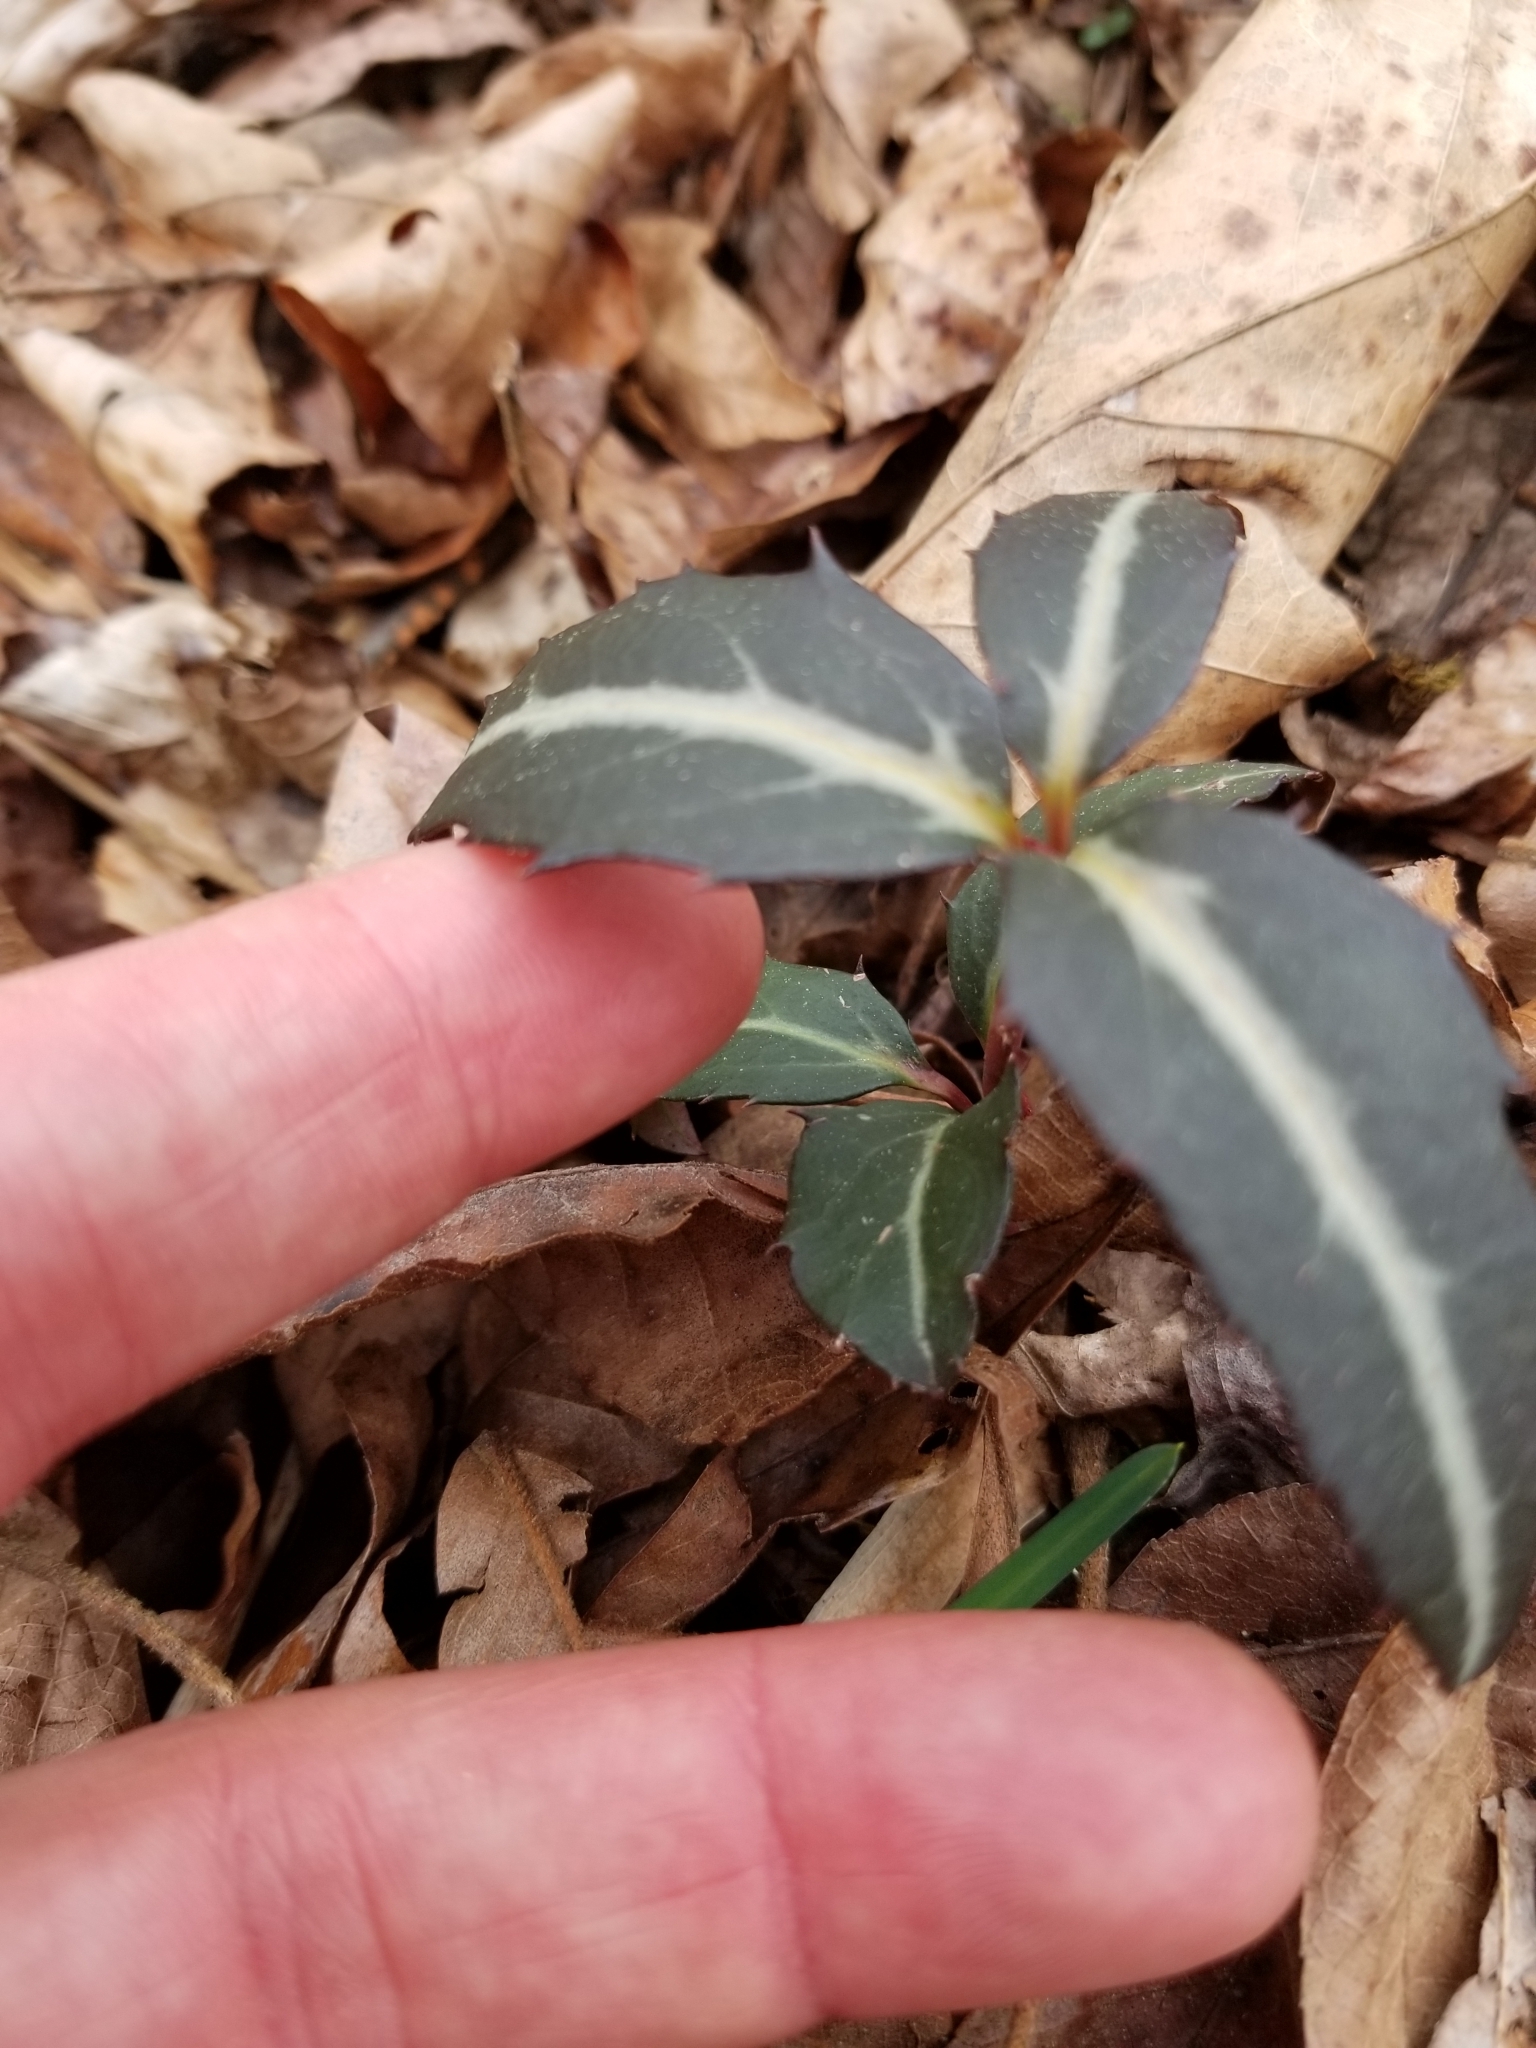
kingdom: Plantae
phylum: Tracheophyta
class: Magnoliopsida
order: Ericales
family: Ericaceae
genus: Chimaphila
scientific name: Chimaphila maculata
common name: Spotted pipsissewa
